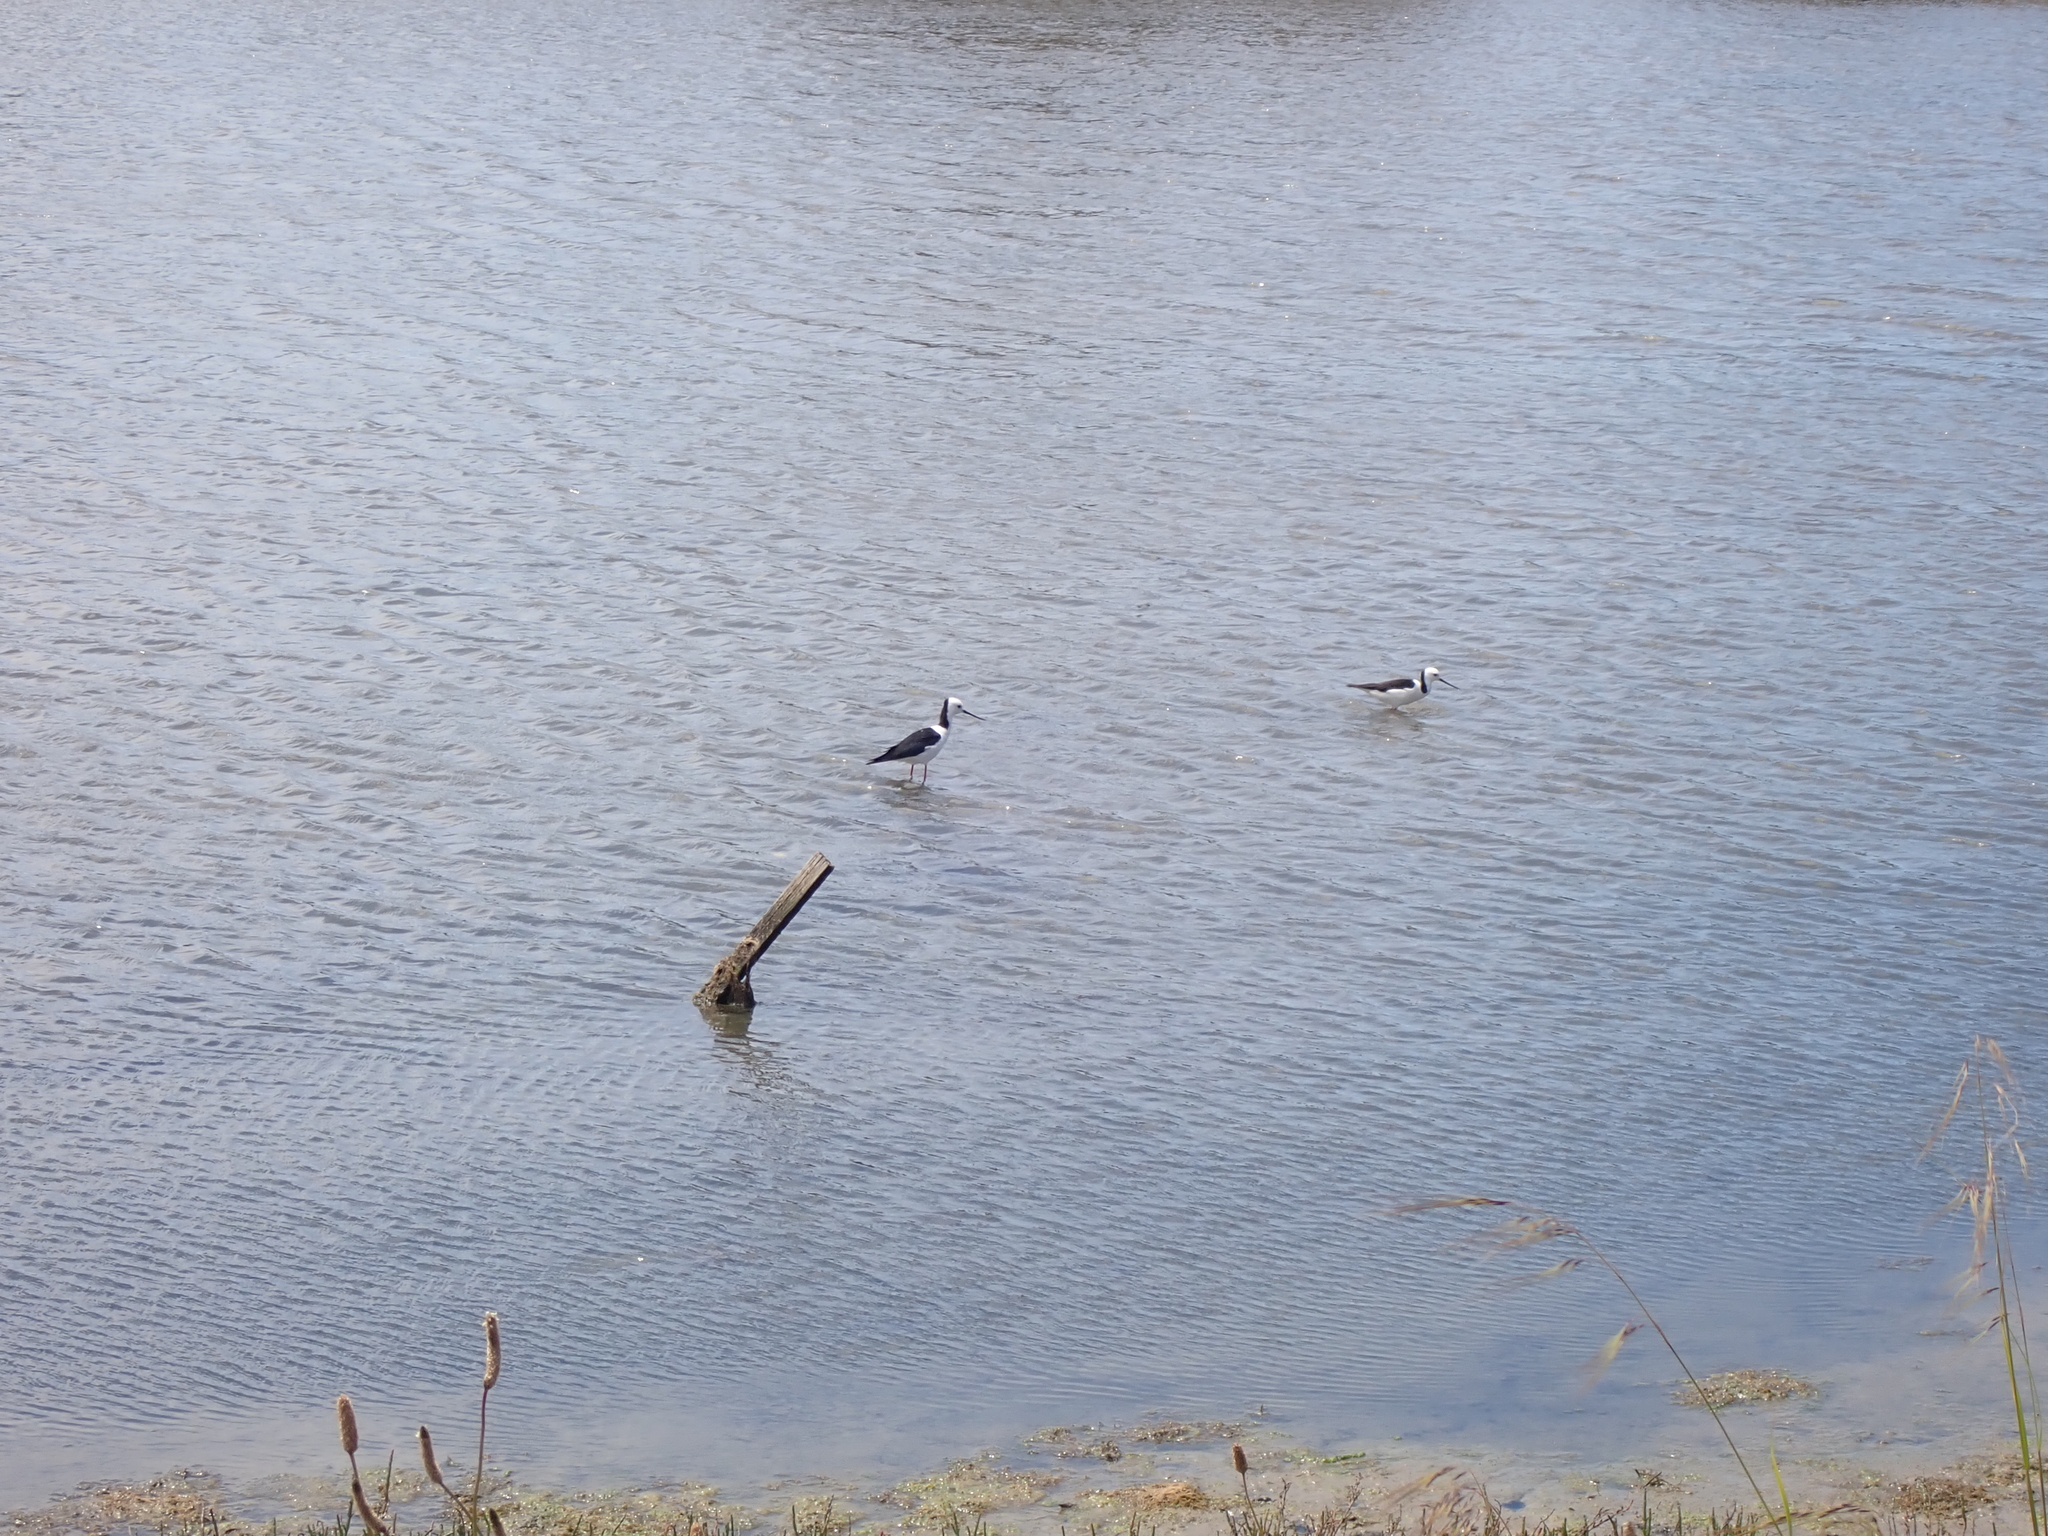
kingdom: Animalia
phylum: Chordata
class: Aves
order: Charadriiformes
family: Recurvirostridae
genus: Himantopus
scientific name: Himantopus leucocephalus
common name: White-headed stilt
